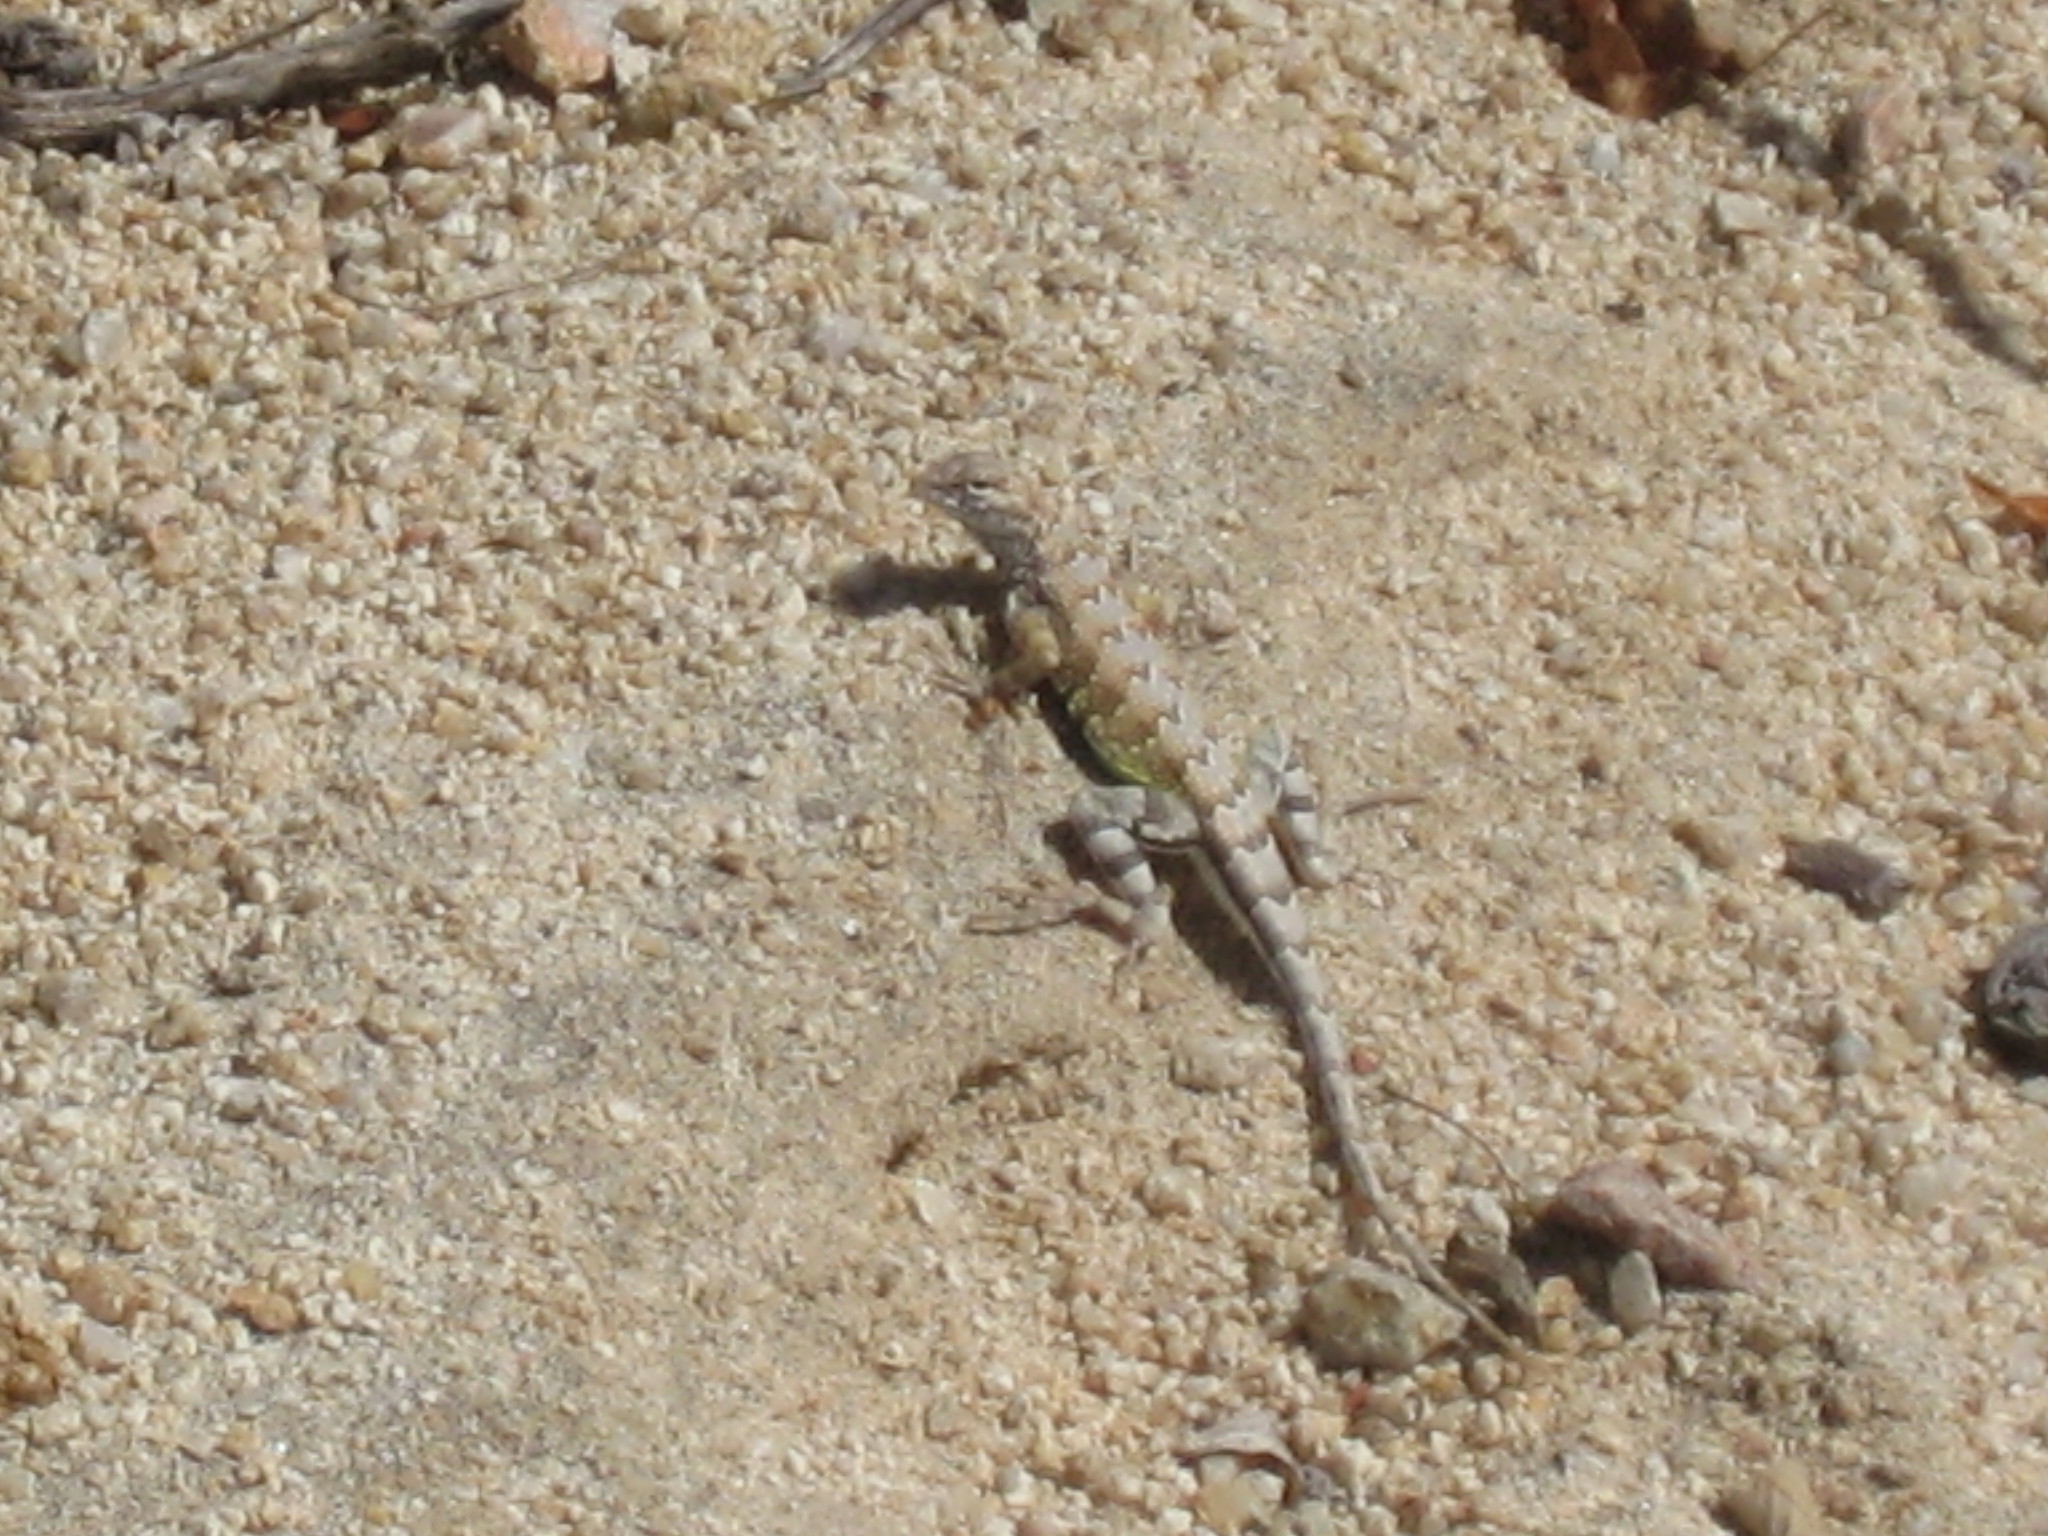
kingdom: Animalia
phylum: Chordata
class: Squamata
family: Phrynosomatidae
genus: Callisaurus
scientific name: Callisaurus draconoides
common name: Zebra-tailed lizard
